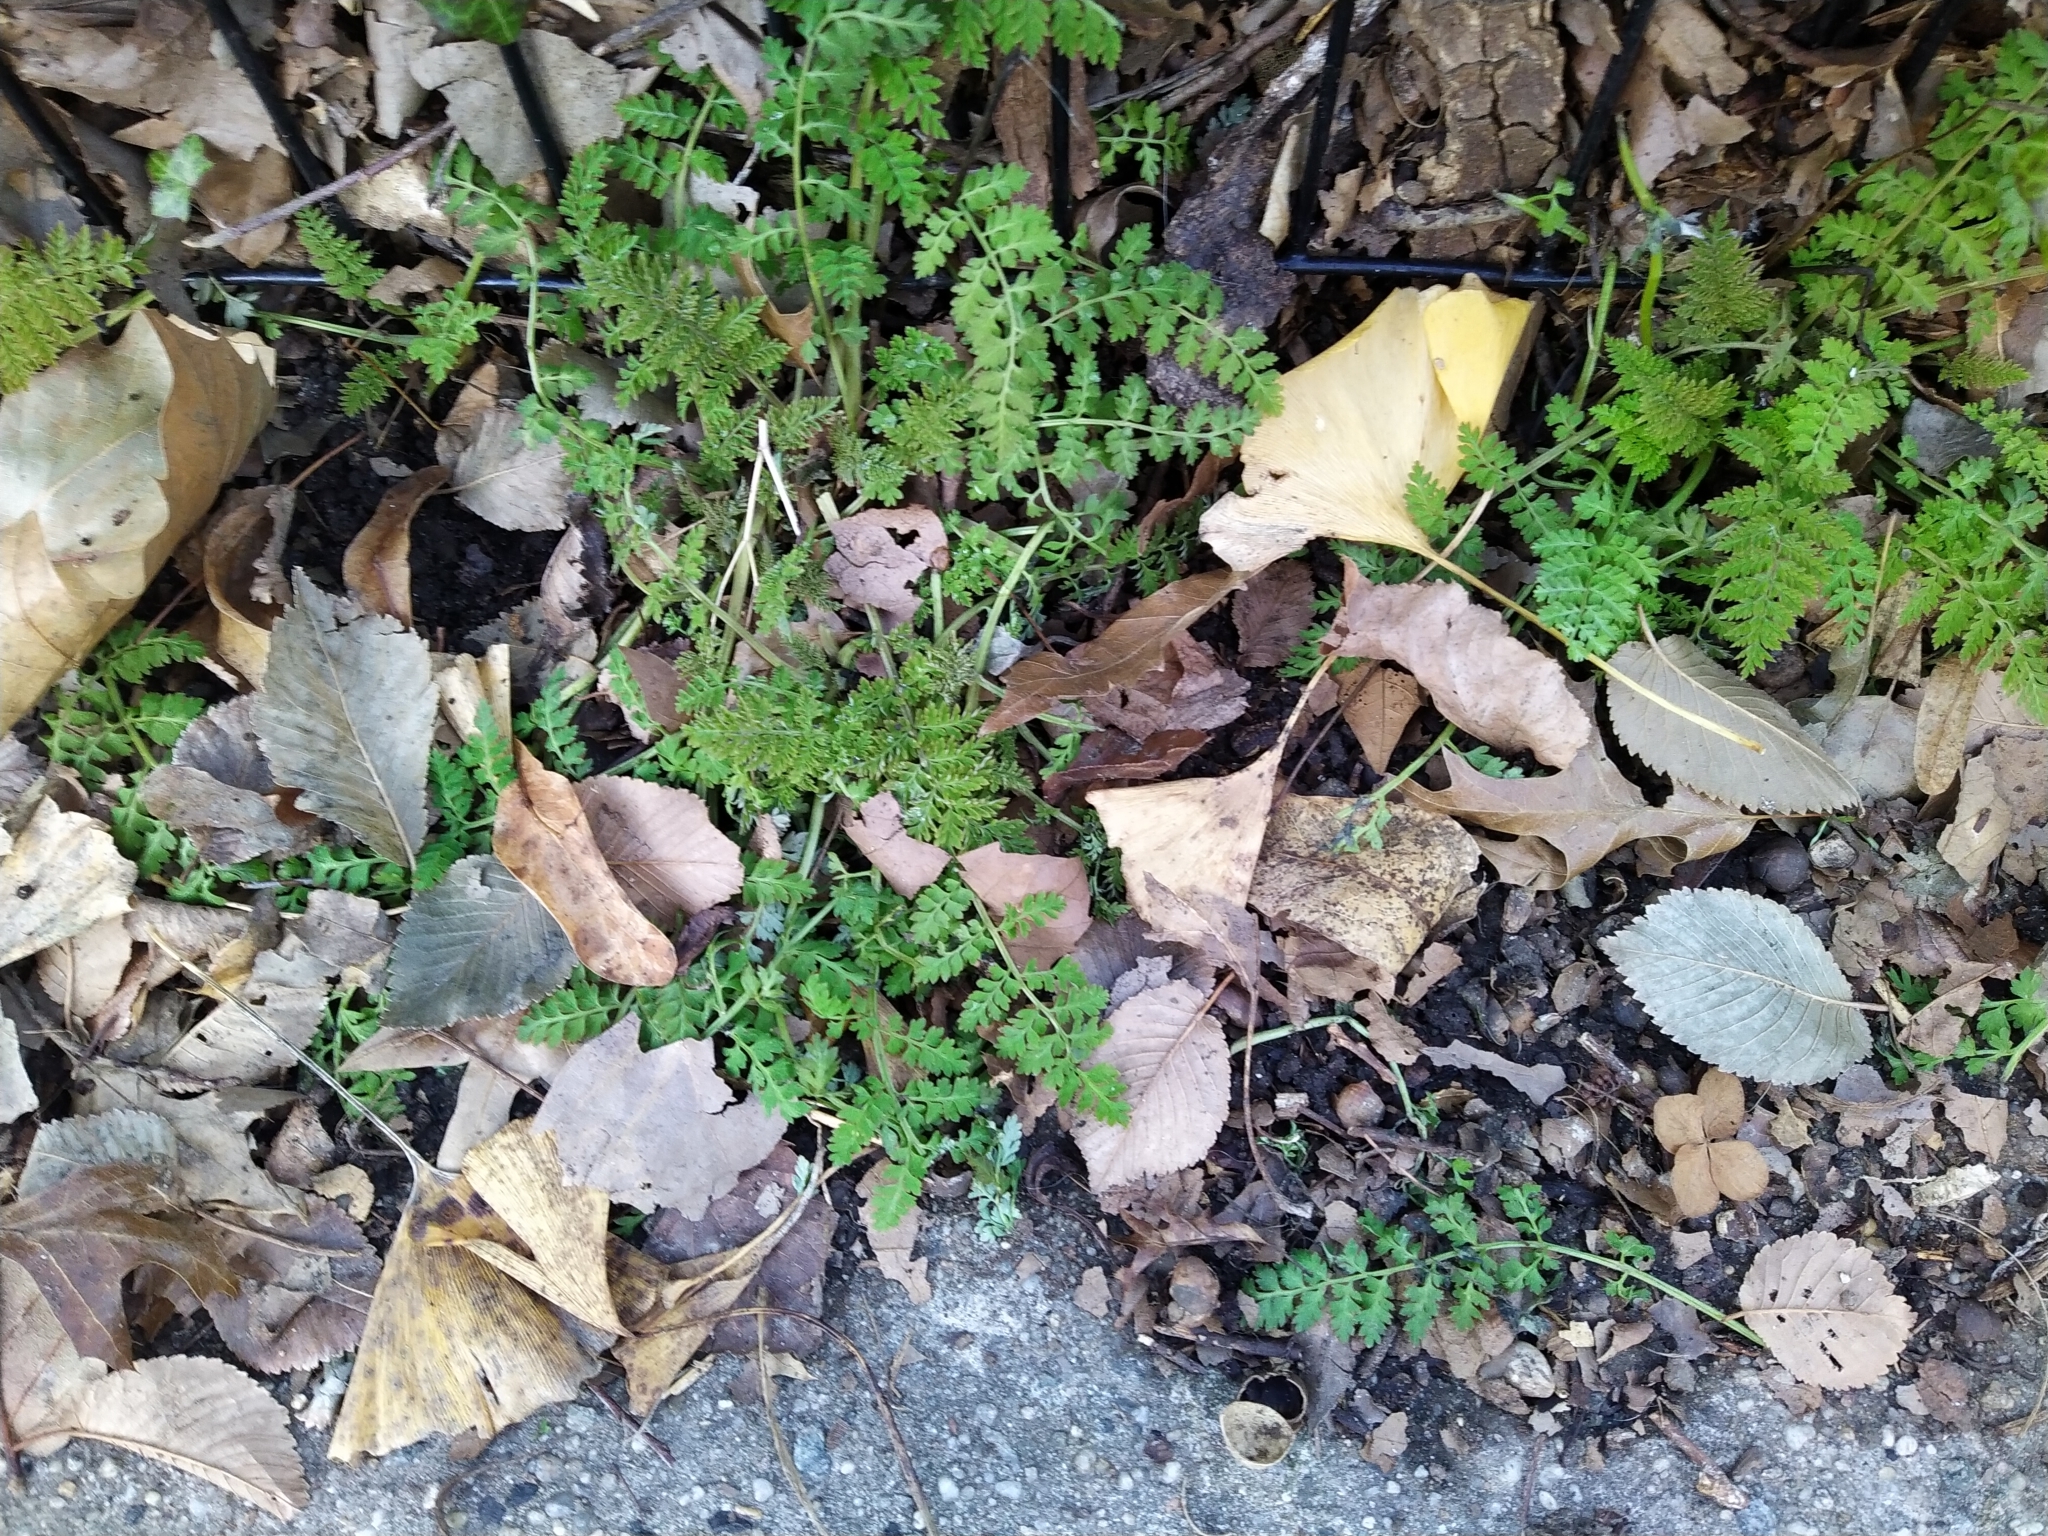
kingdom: Plantae
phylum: Tracheophyta
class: Magnoliopsida
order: Ranunculales
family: Papaveraceae
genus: Corydalis
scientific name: Corydalis cheilanthifolia
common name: Fern-leaved corydalis
